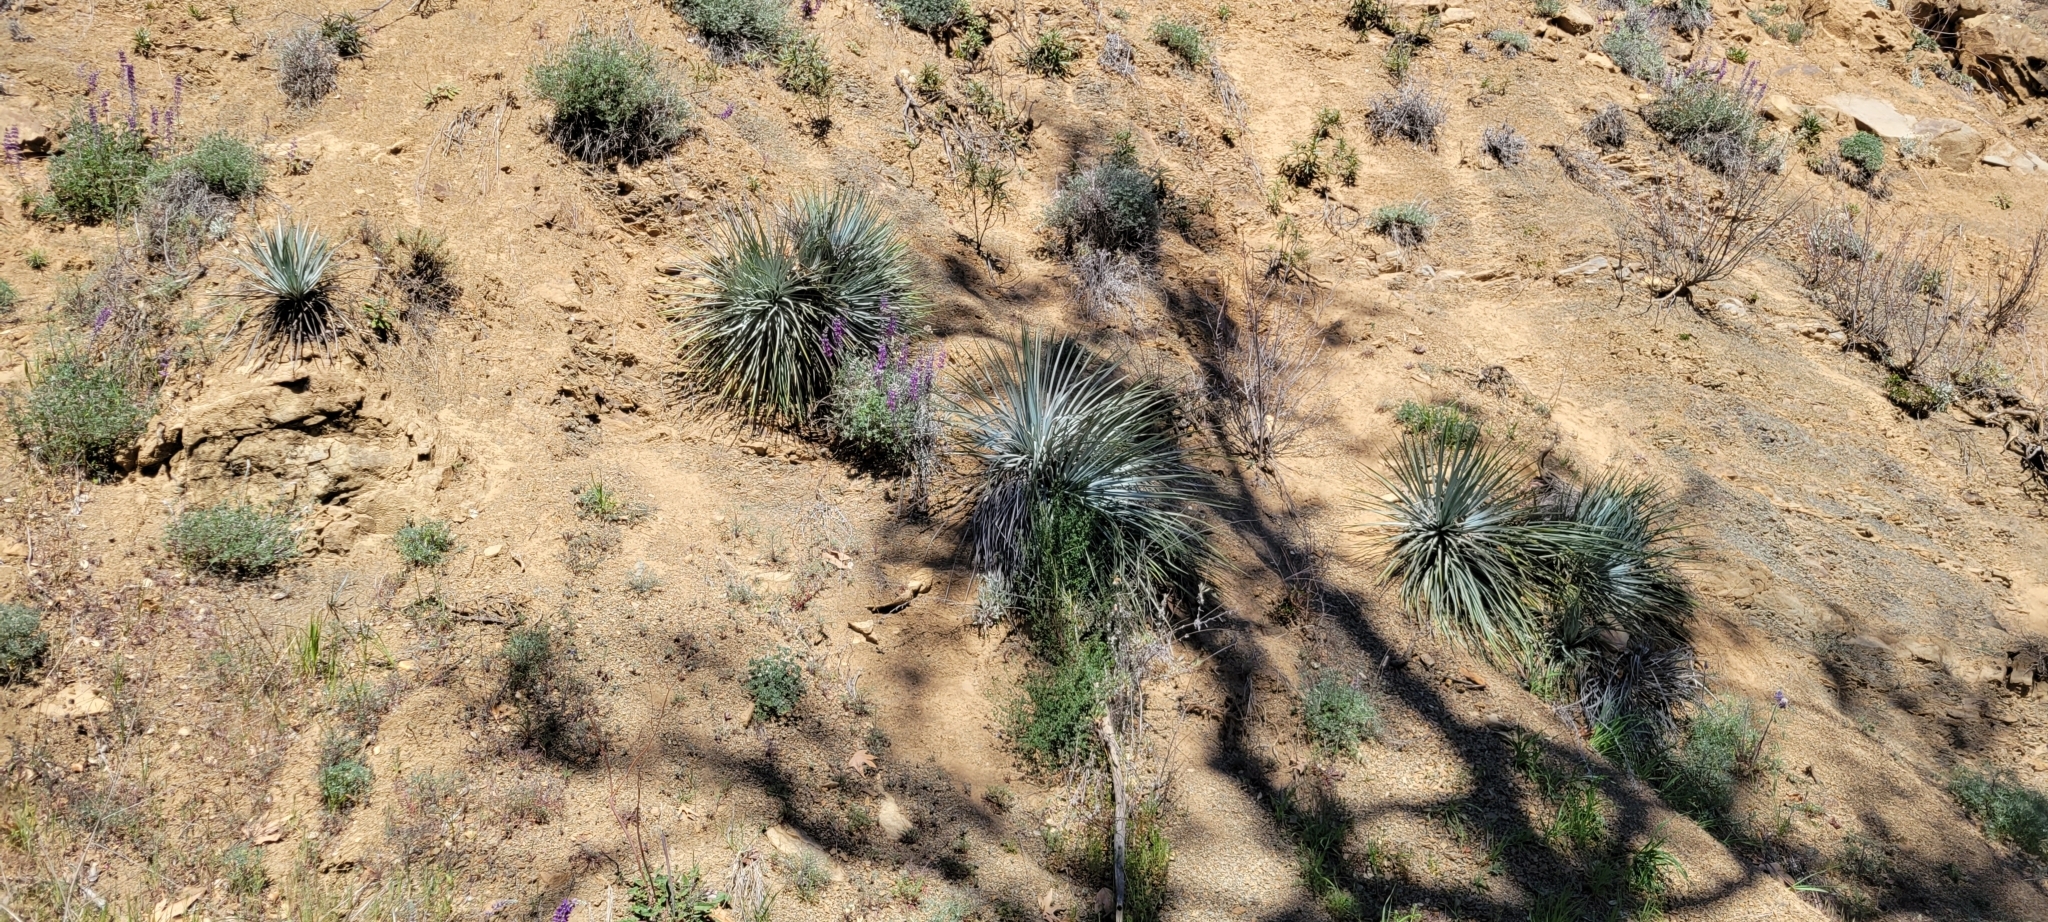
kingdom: Plantae
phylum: Tracheophyta
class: Liliopsida
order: Asparagales
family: Asparagaceae
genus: Hesperoyucca
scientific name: Hesperoyucca whipplei
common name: Our lord's-candle
